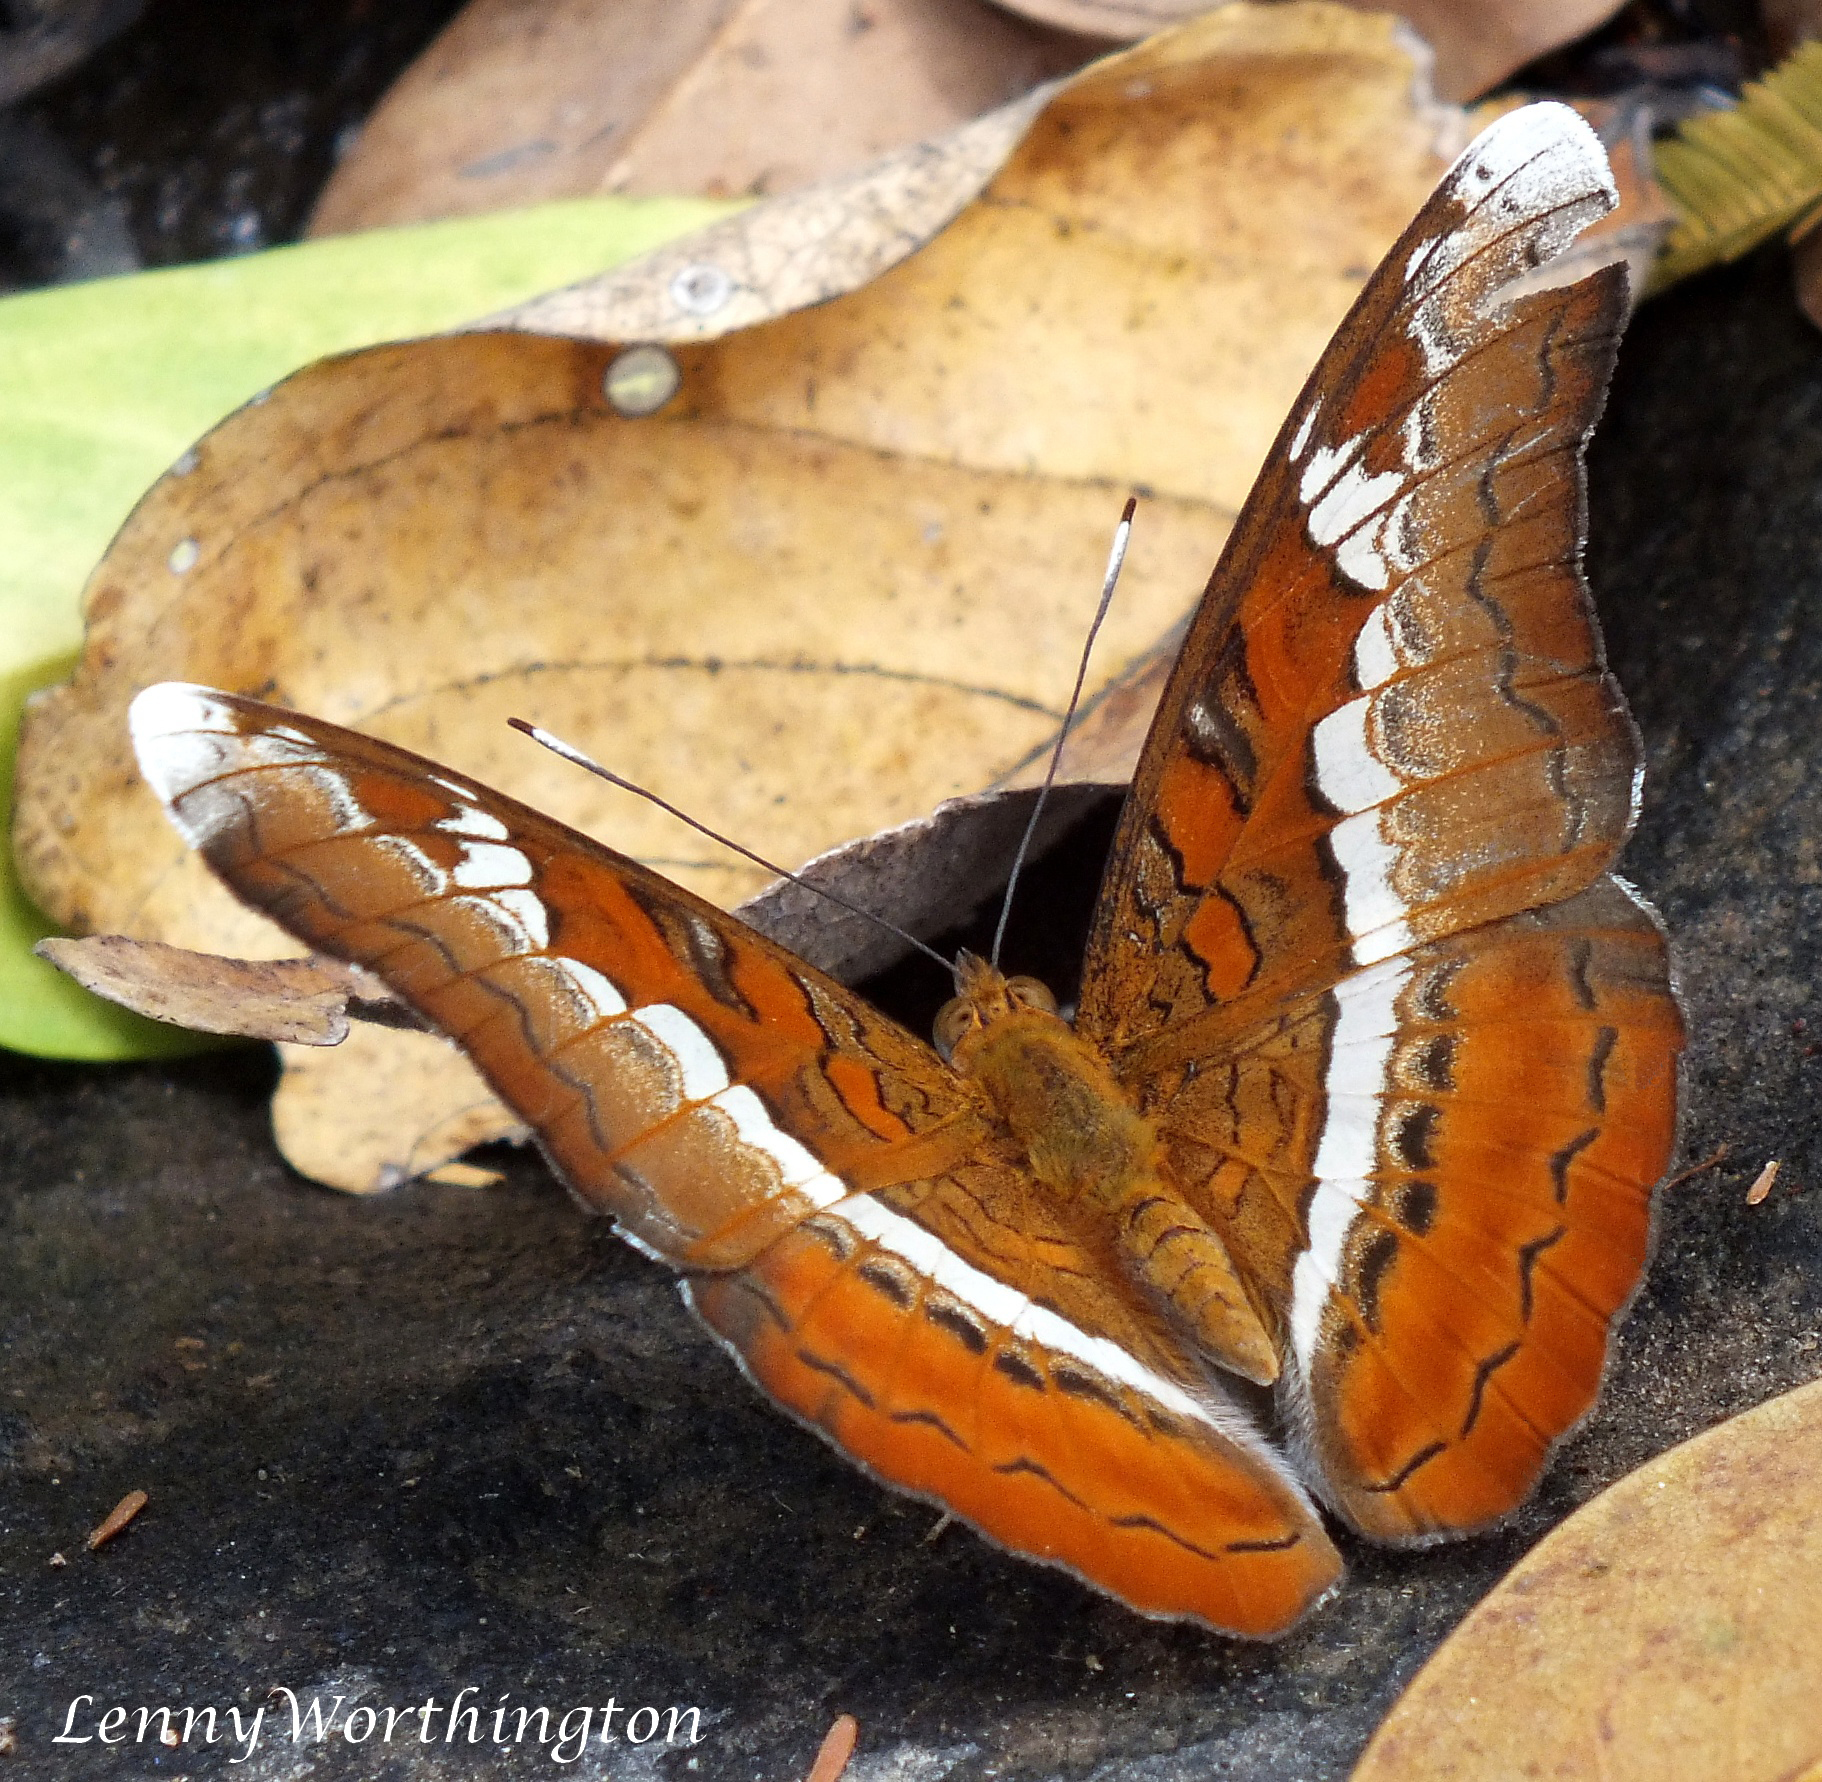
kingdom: Animalia
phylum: Arthropoda
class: Insecta
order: Lepidoptera
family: Nymphalidae
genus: Lebadea
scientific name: Lebadea martha
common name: Knight
